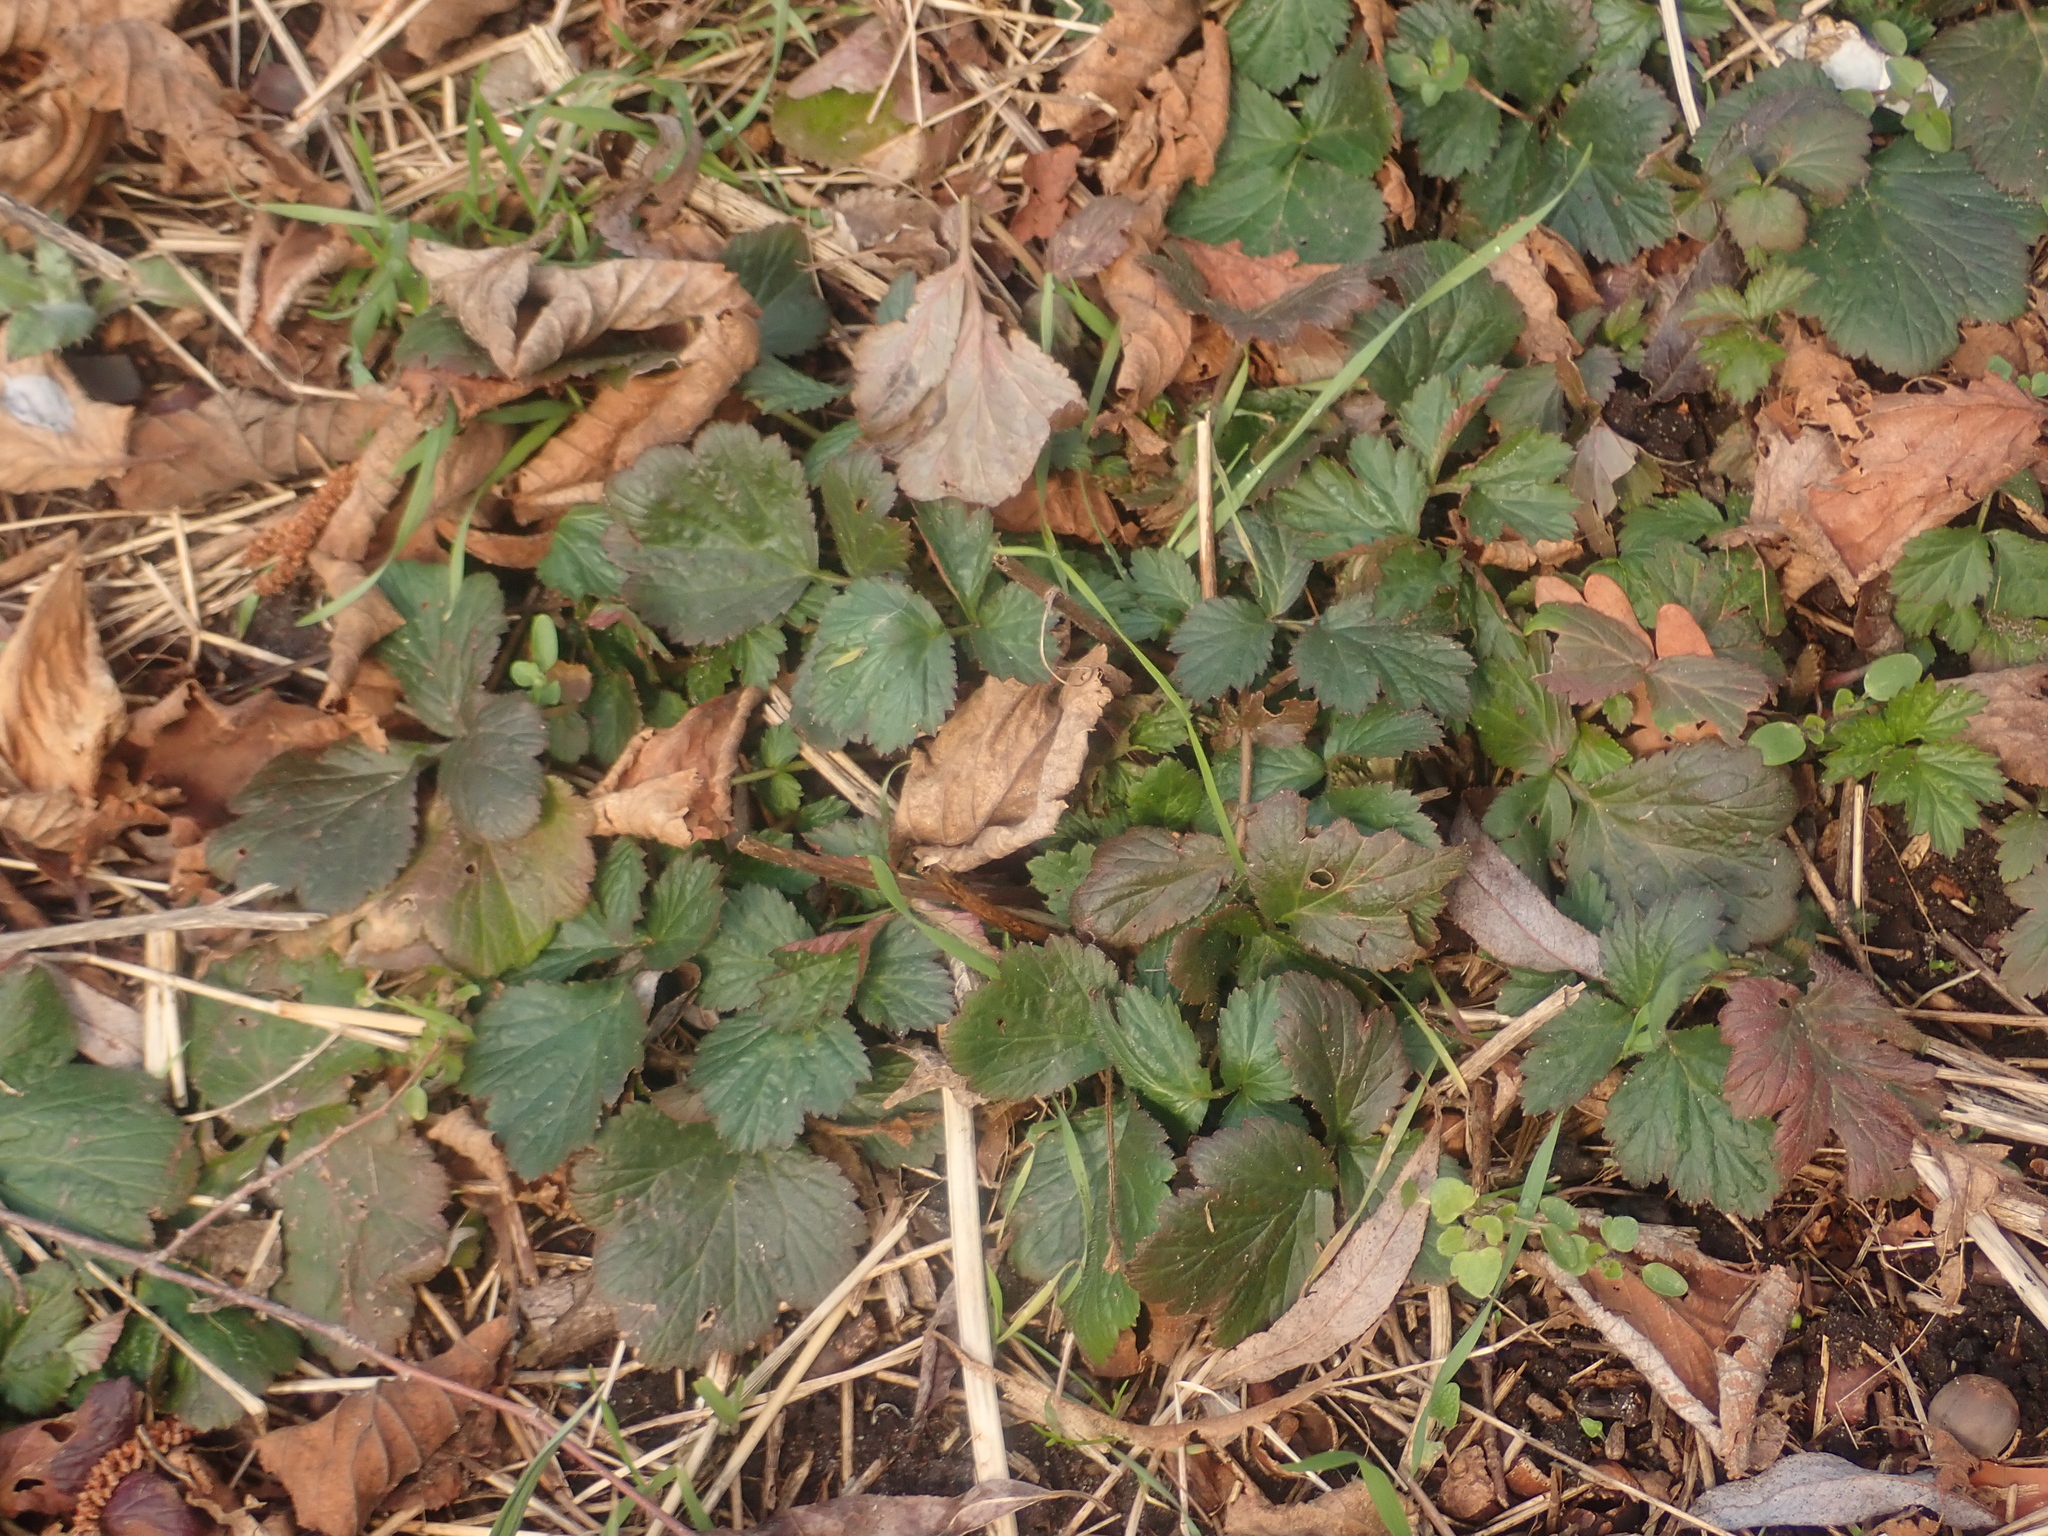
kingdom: Plantae
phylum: Tracheophyta
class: Magnoliopsida
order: Rosales
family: Rosaceae
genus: Geum
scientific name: Geum urbanum
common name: Wood avens
